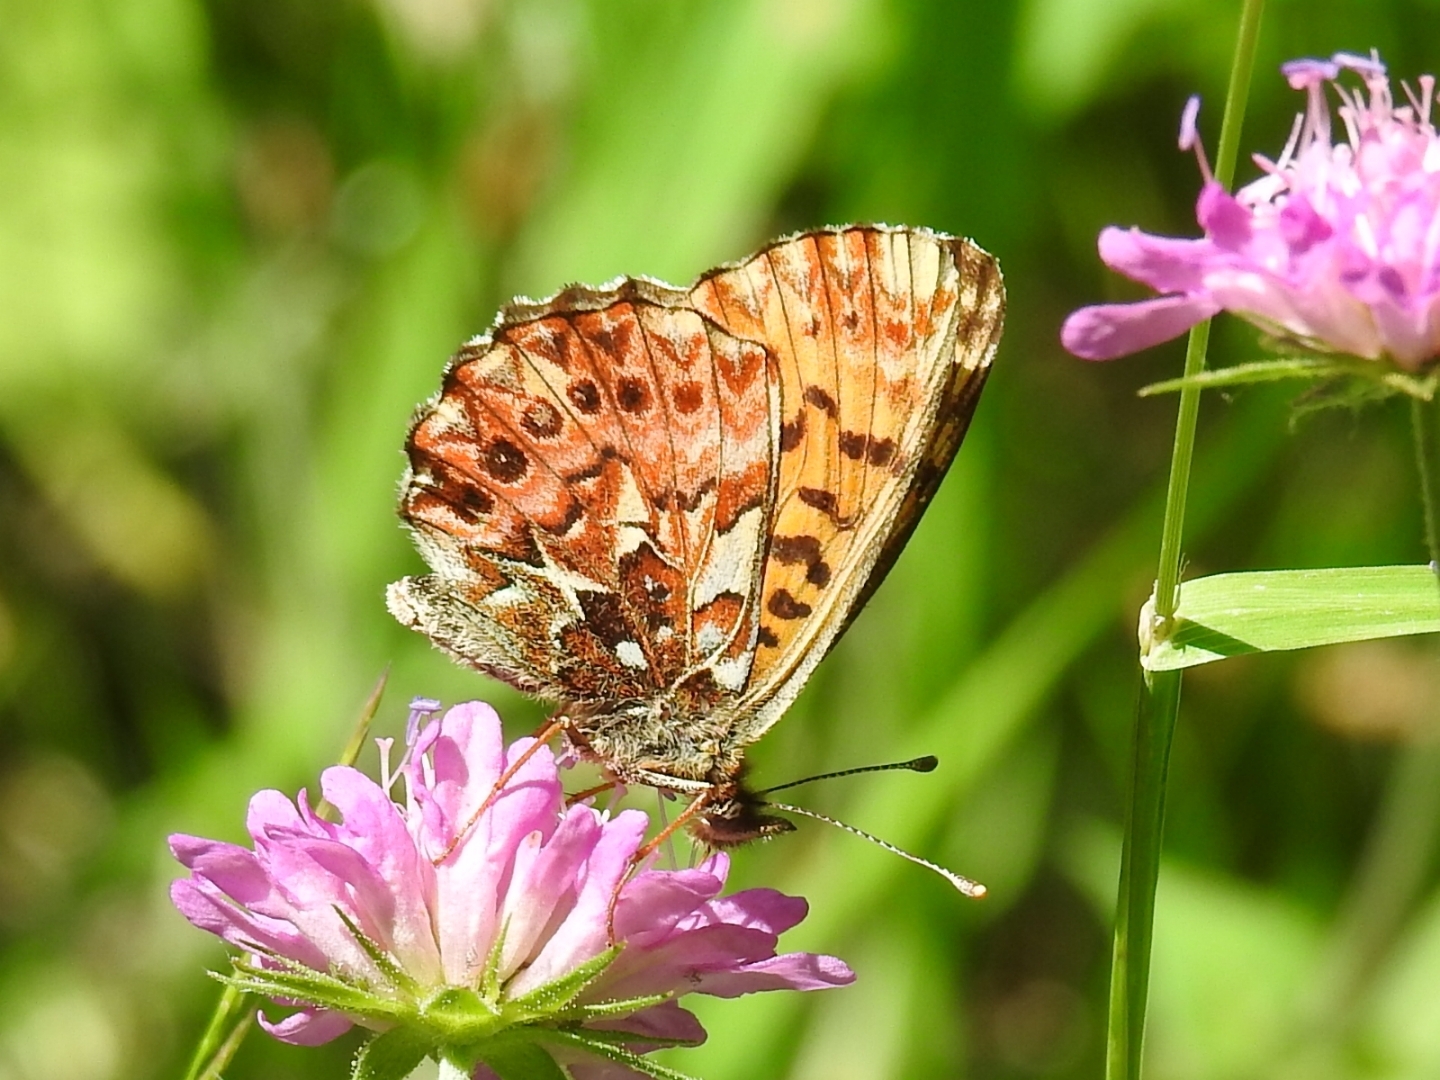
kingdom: Animalia
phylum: Arthropoda
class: Insecta
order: Lepidoptera
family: Nymphalidae
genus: Boloria
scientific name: Boloria titania
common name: Titania's fritillary
